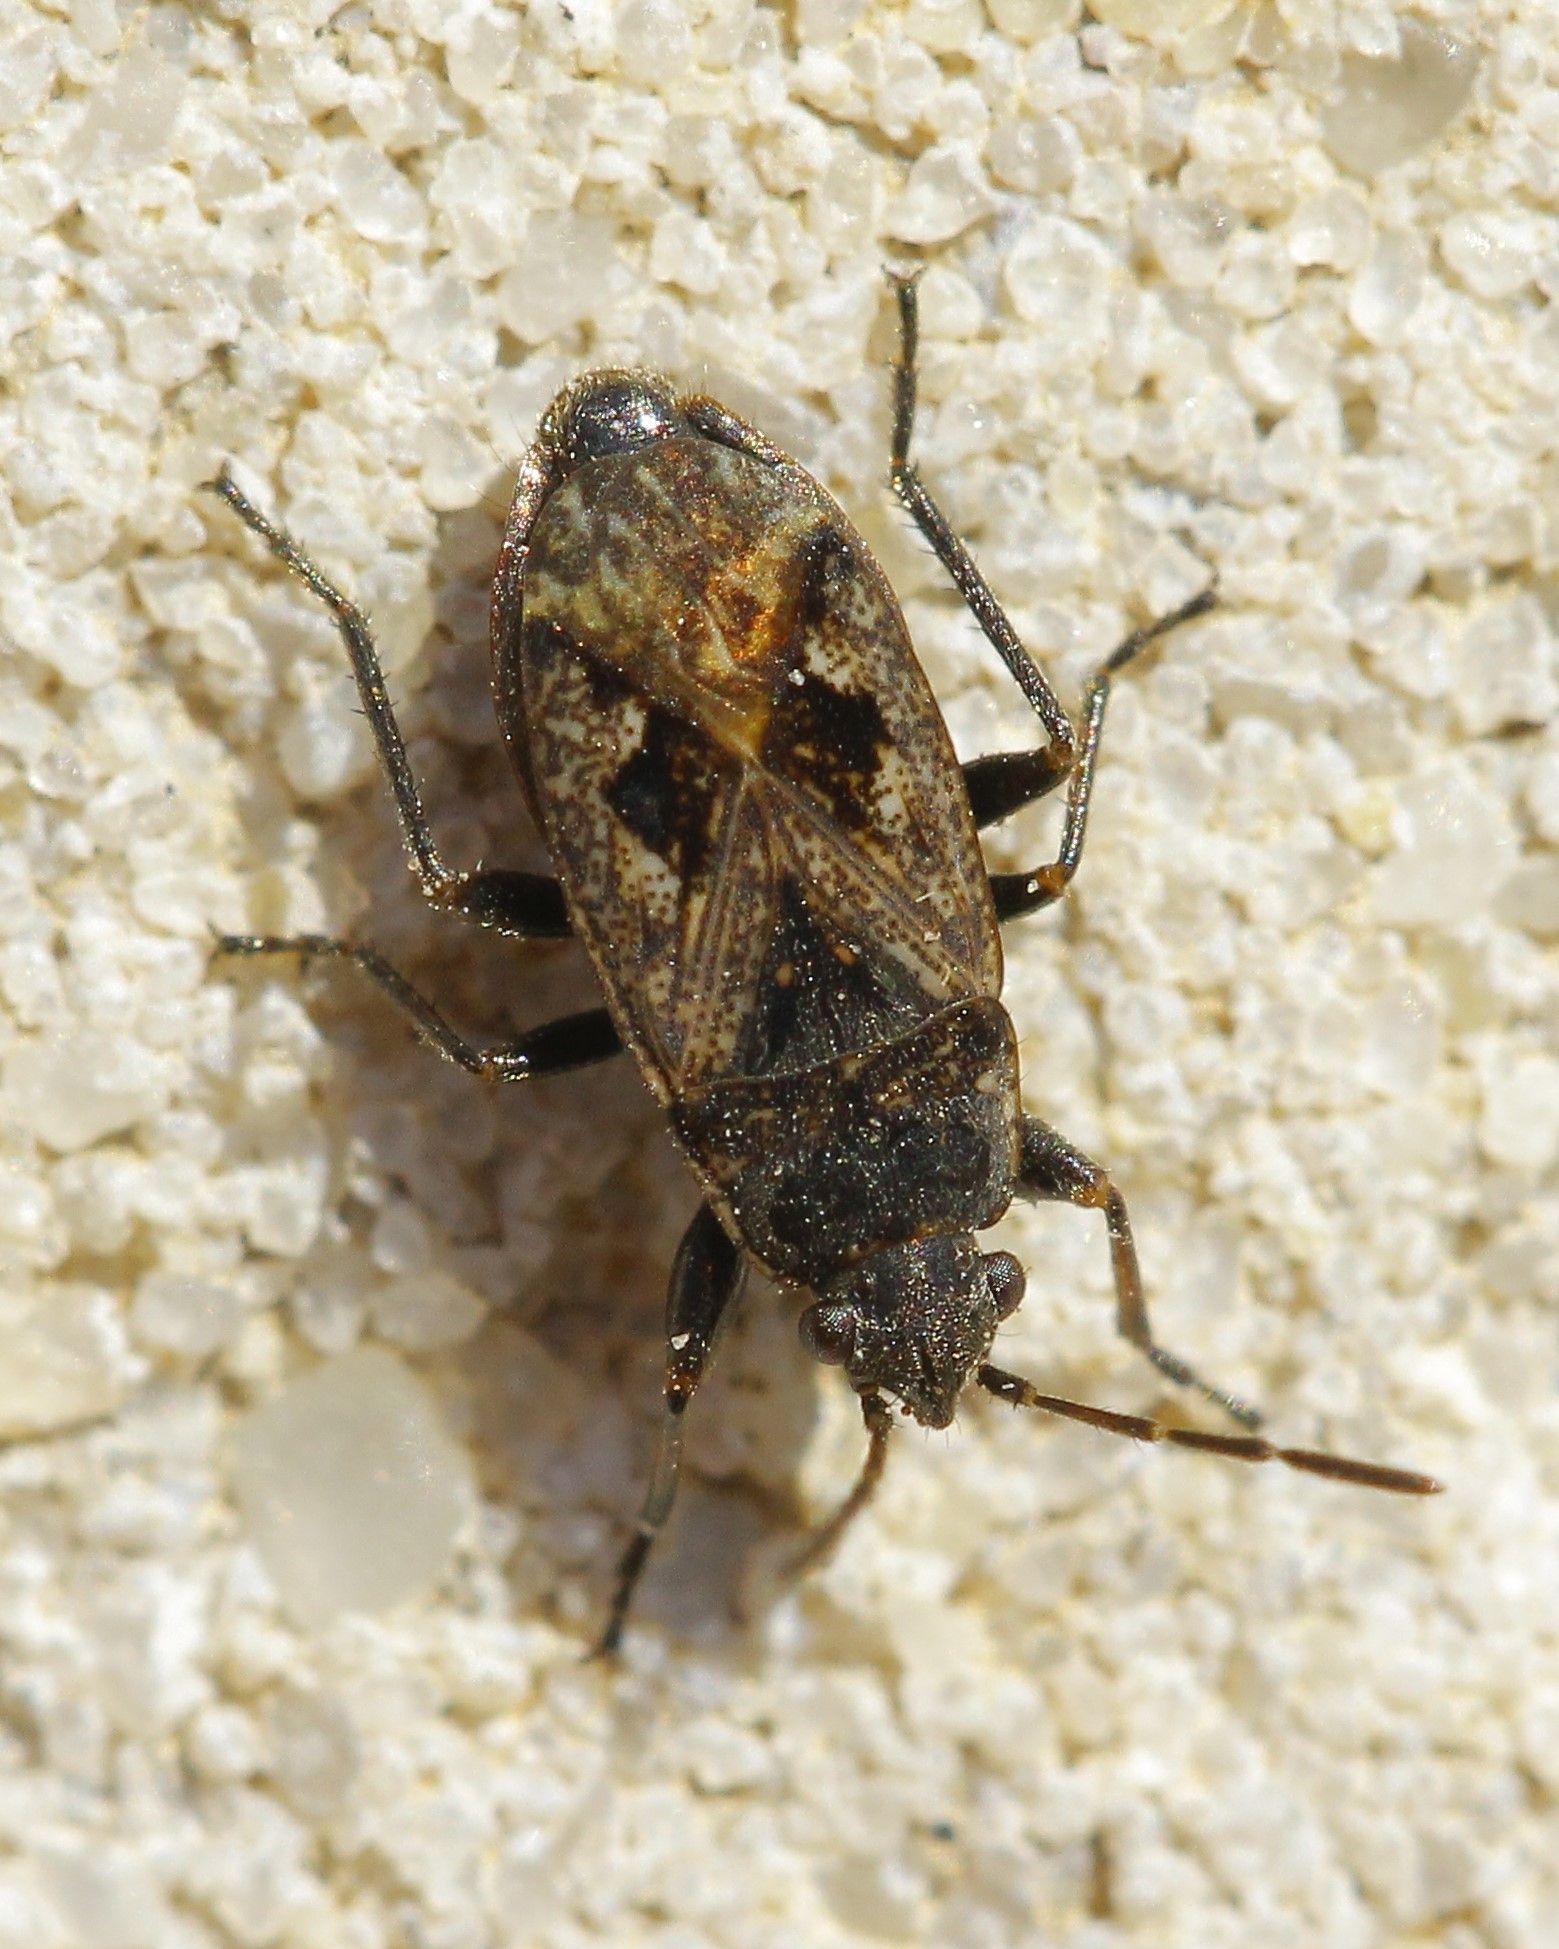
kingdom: Animalia
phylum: Arthropoda
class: Insecta
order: Hemiptera
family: Rhyparochromidae
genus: Sphragisticus
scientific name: Sphragisticus nebulosus
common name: Dirt-colored seed bug
